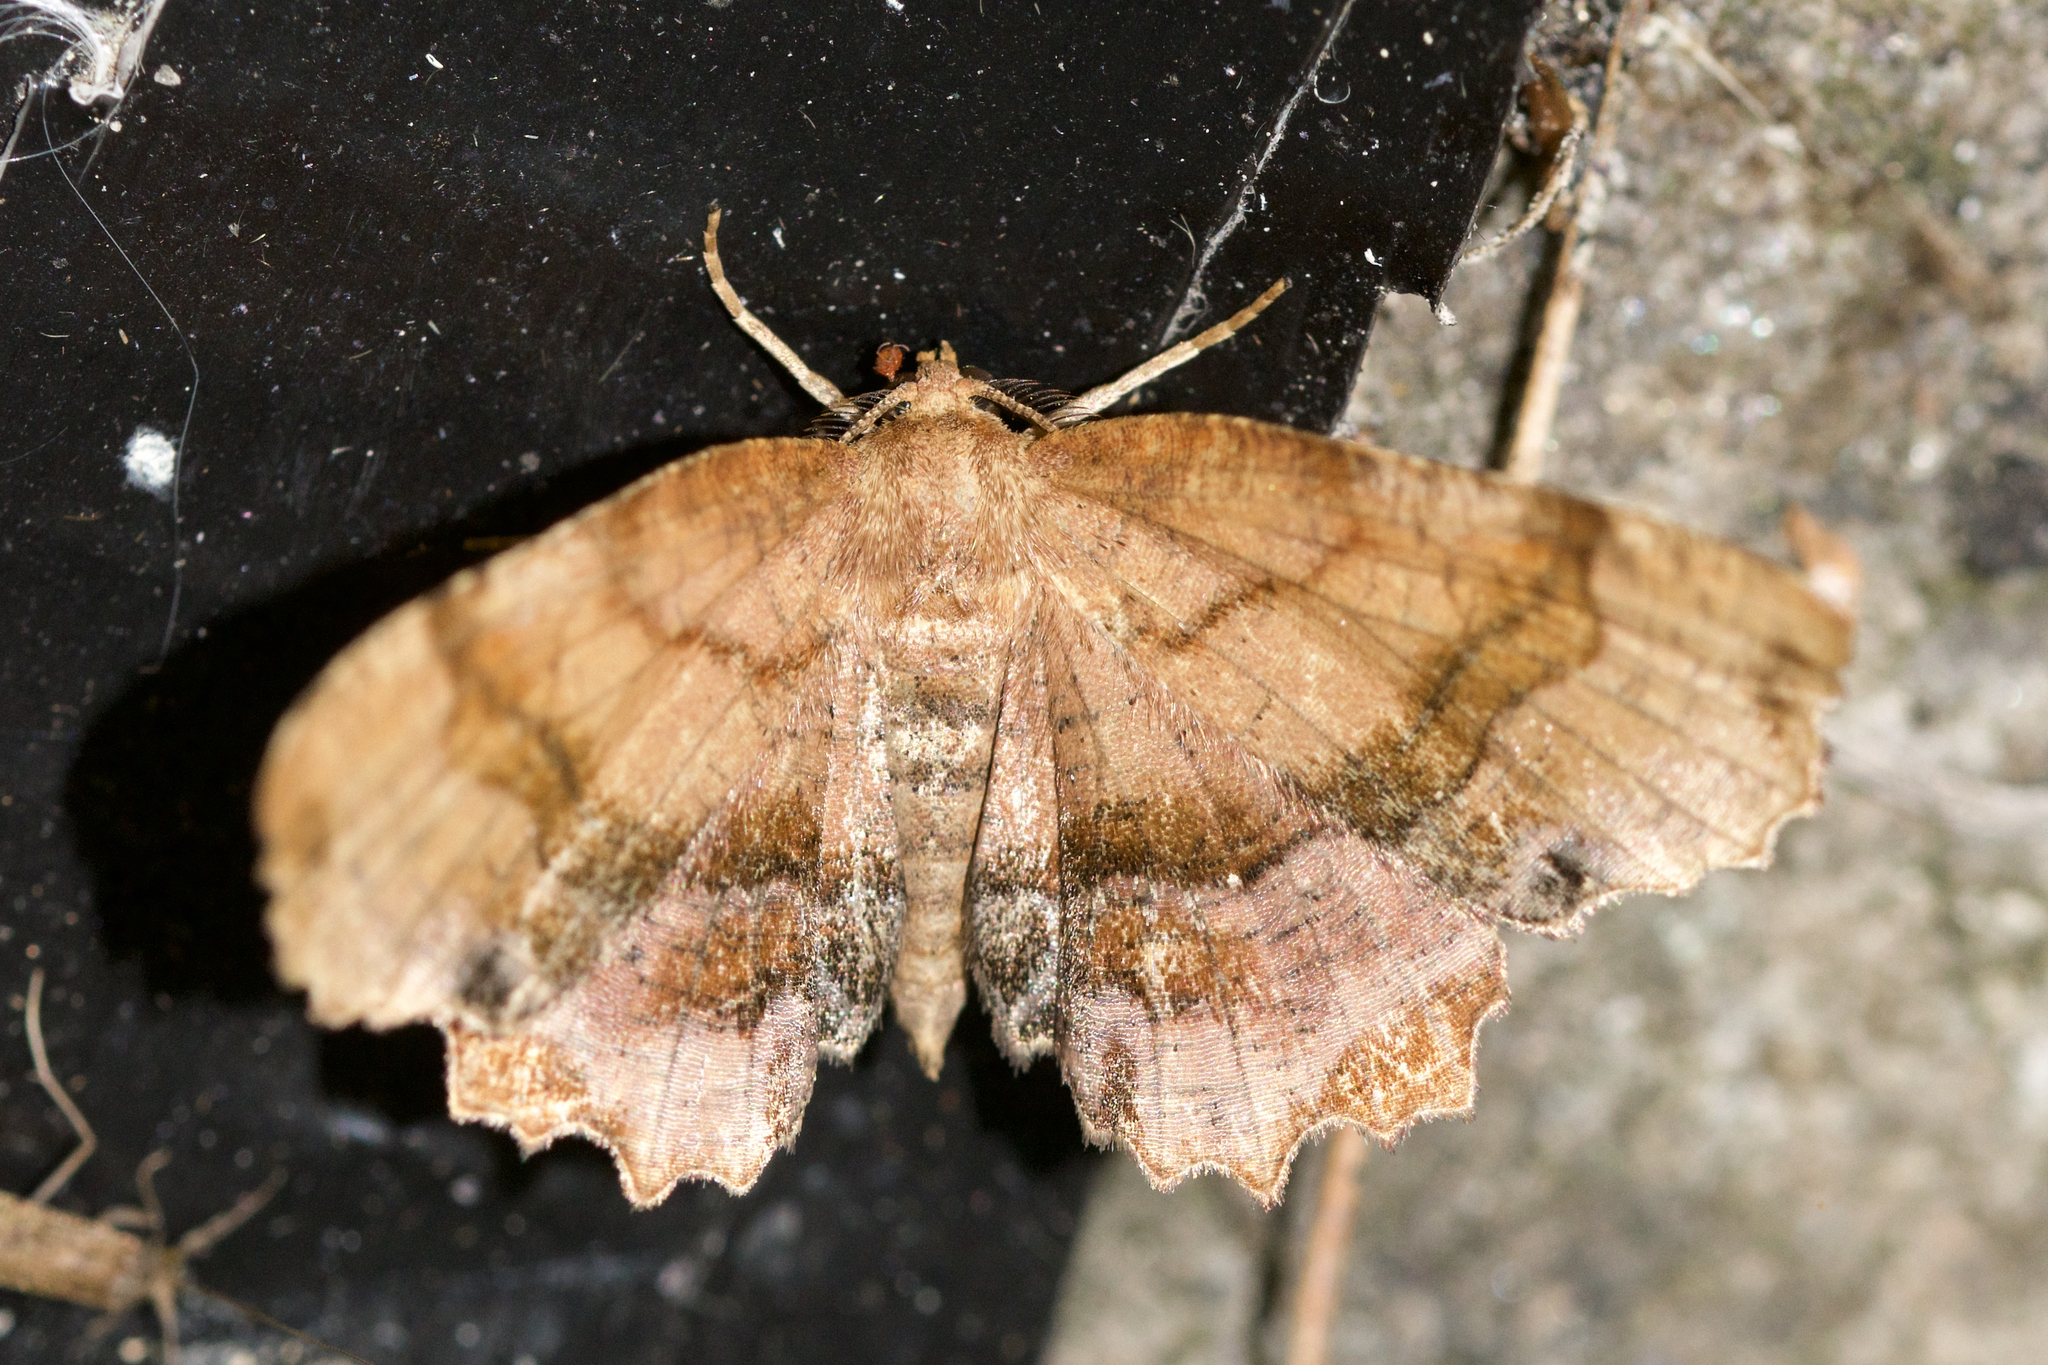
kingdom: Animalia
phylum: Arthropoda
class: Insecta
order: Lepidoptera
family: Geometridae
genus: Cepphis
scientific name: Cepphis armataria
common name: Scallop moth
